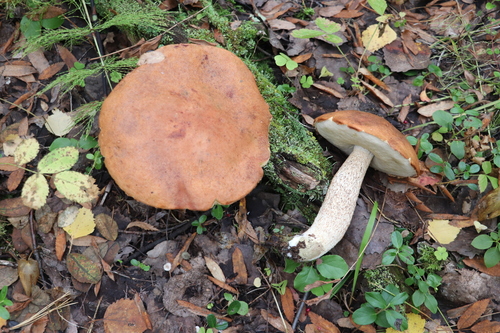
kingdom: Fungi
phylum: Basidiomycota
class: Agaricomycetes
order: Boletales
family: Boletaceae
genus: Leccinum
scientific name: Leccinum albostipitatum
